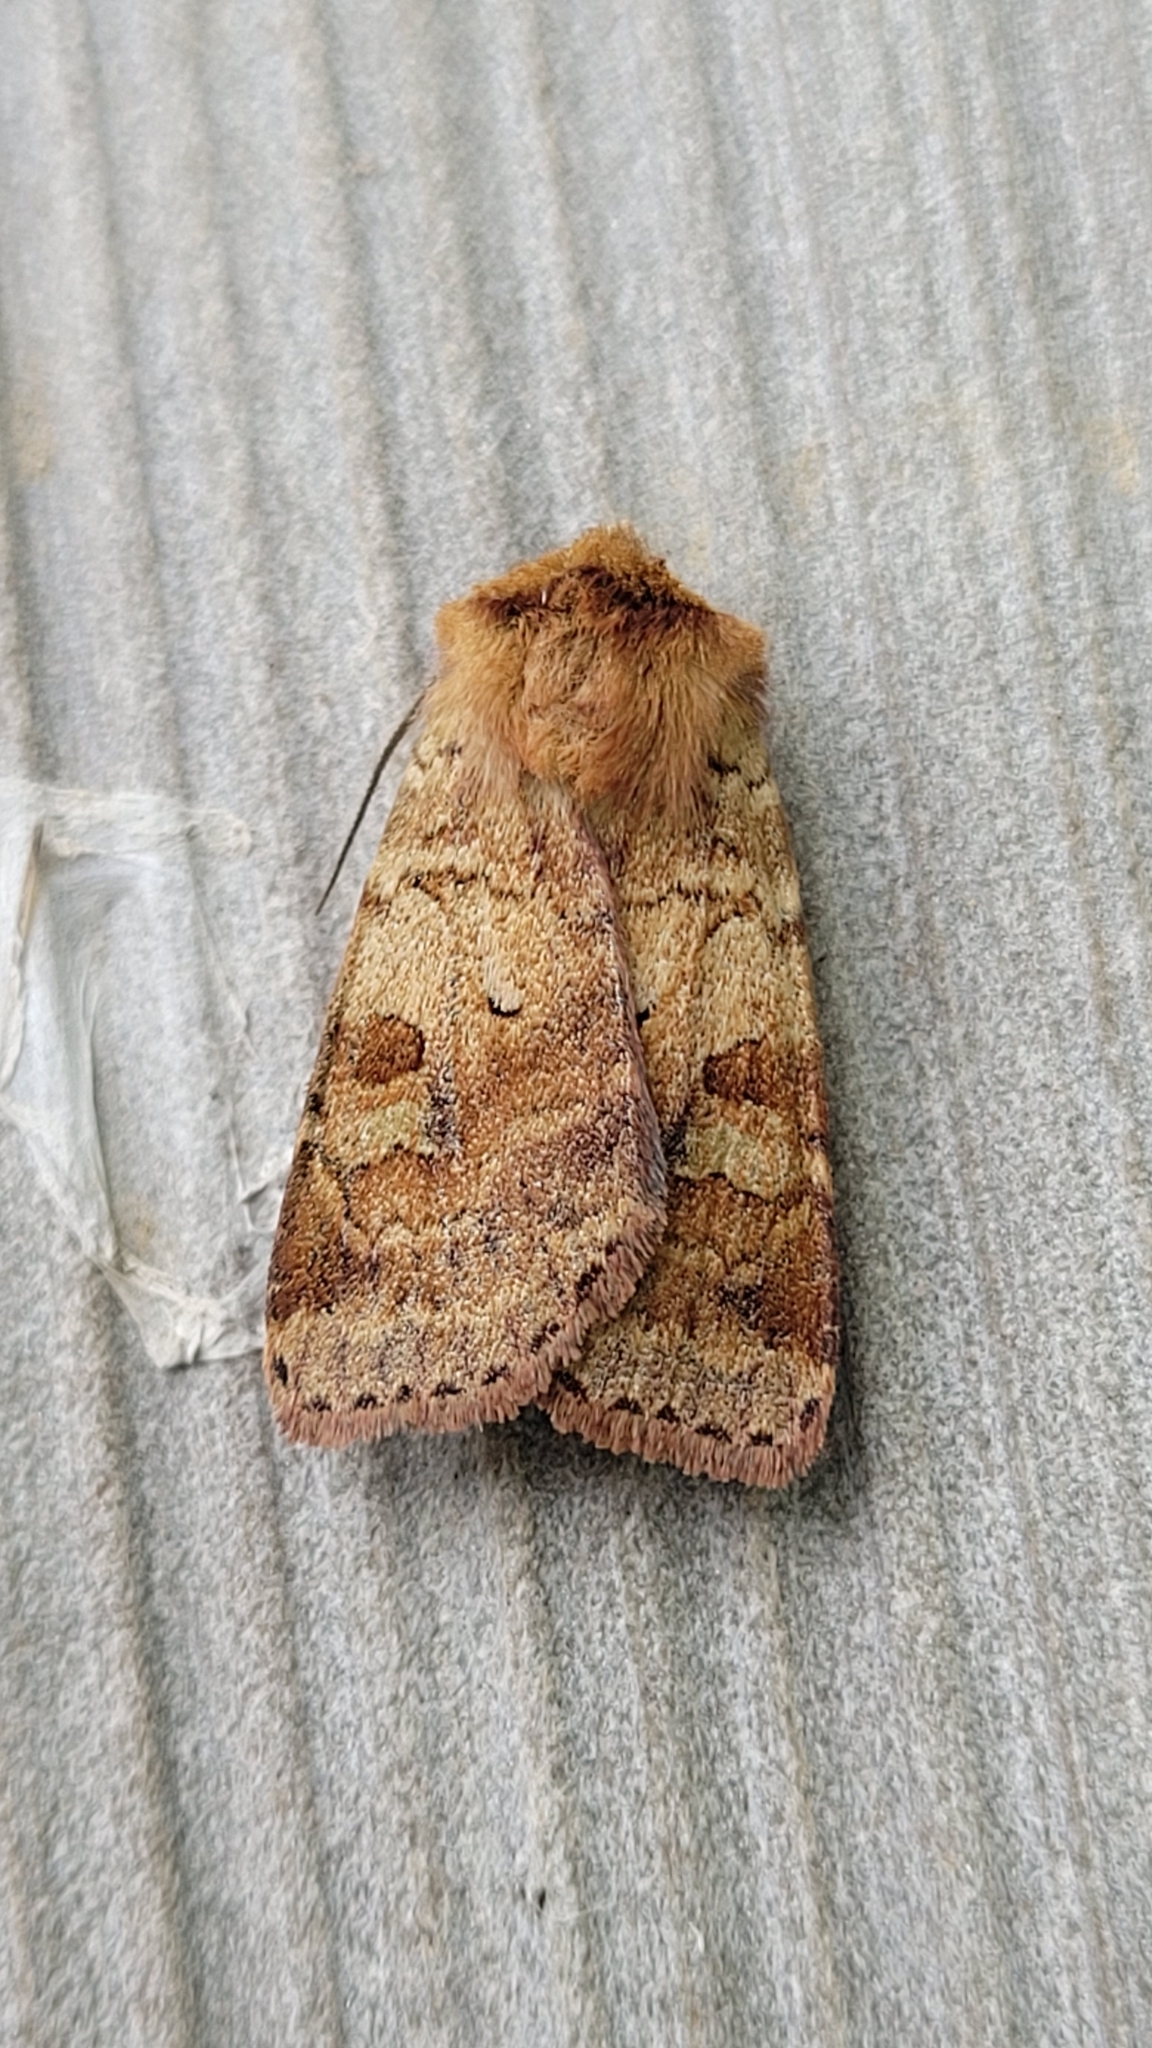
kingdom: Animalia
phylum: Arthropoda
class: Insecta
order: Lepidoptera
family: Noctuidae
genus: Diarsia
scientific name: Diarsia mendica
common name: Ingrailed clay
